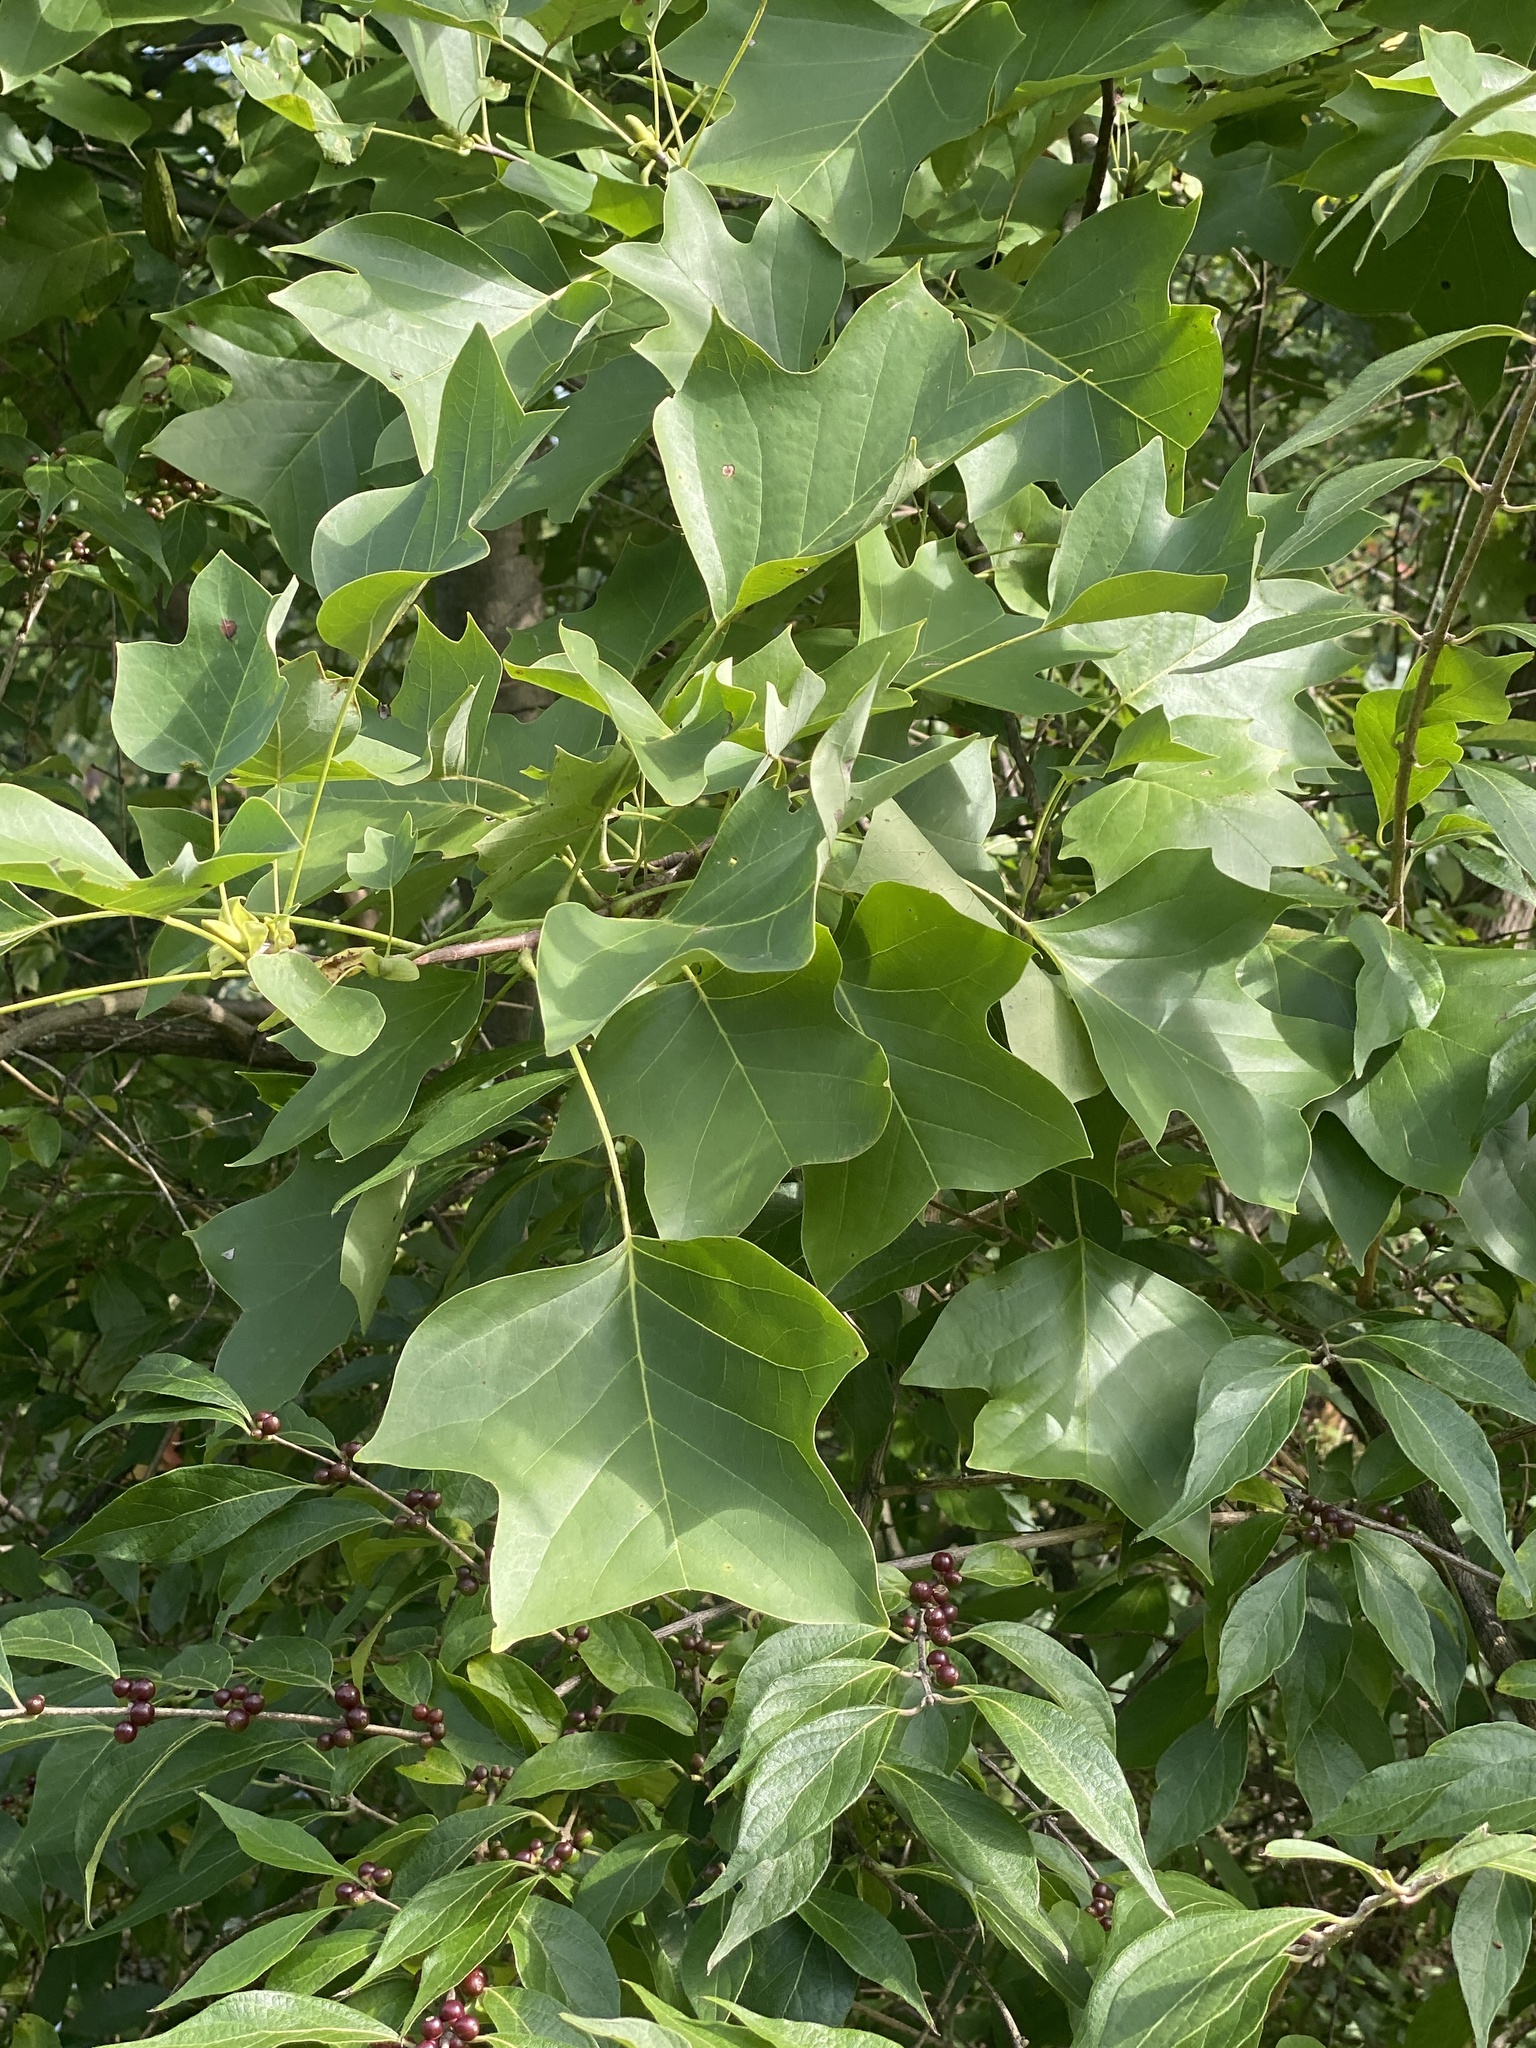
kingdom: Plantae
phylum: Tracheophyta
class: Magnoliopsida
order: Magnoliales
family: Magnoliaceae
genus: Liriodendron
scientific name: Liriodendron tulipifera
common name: Tulip tree
